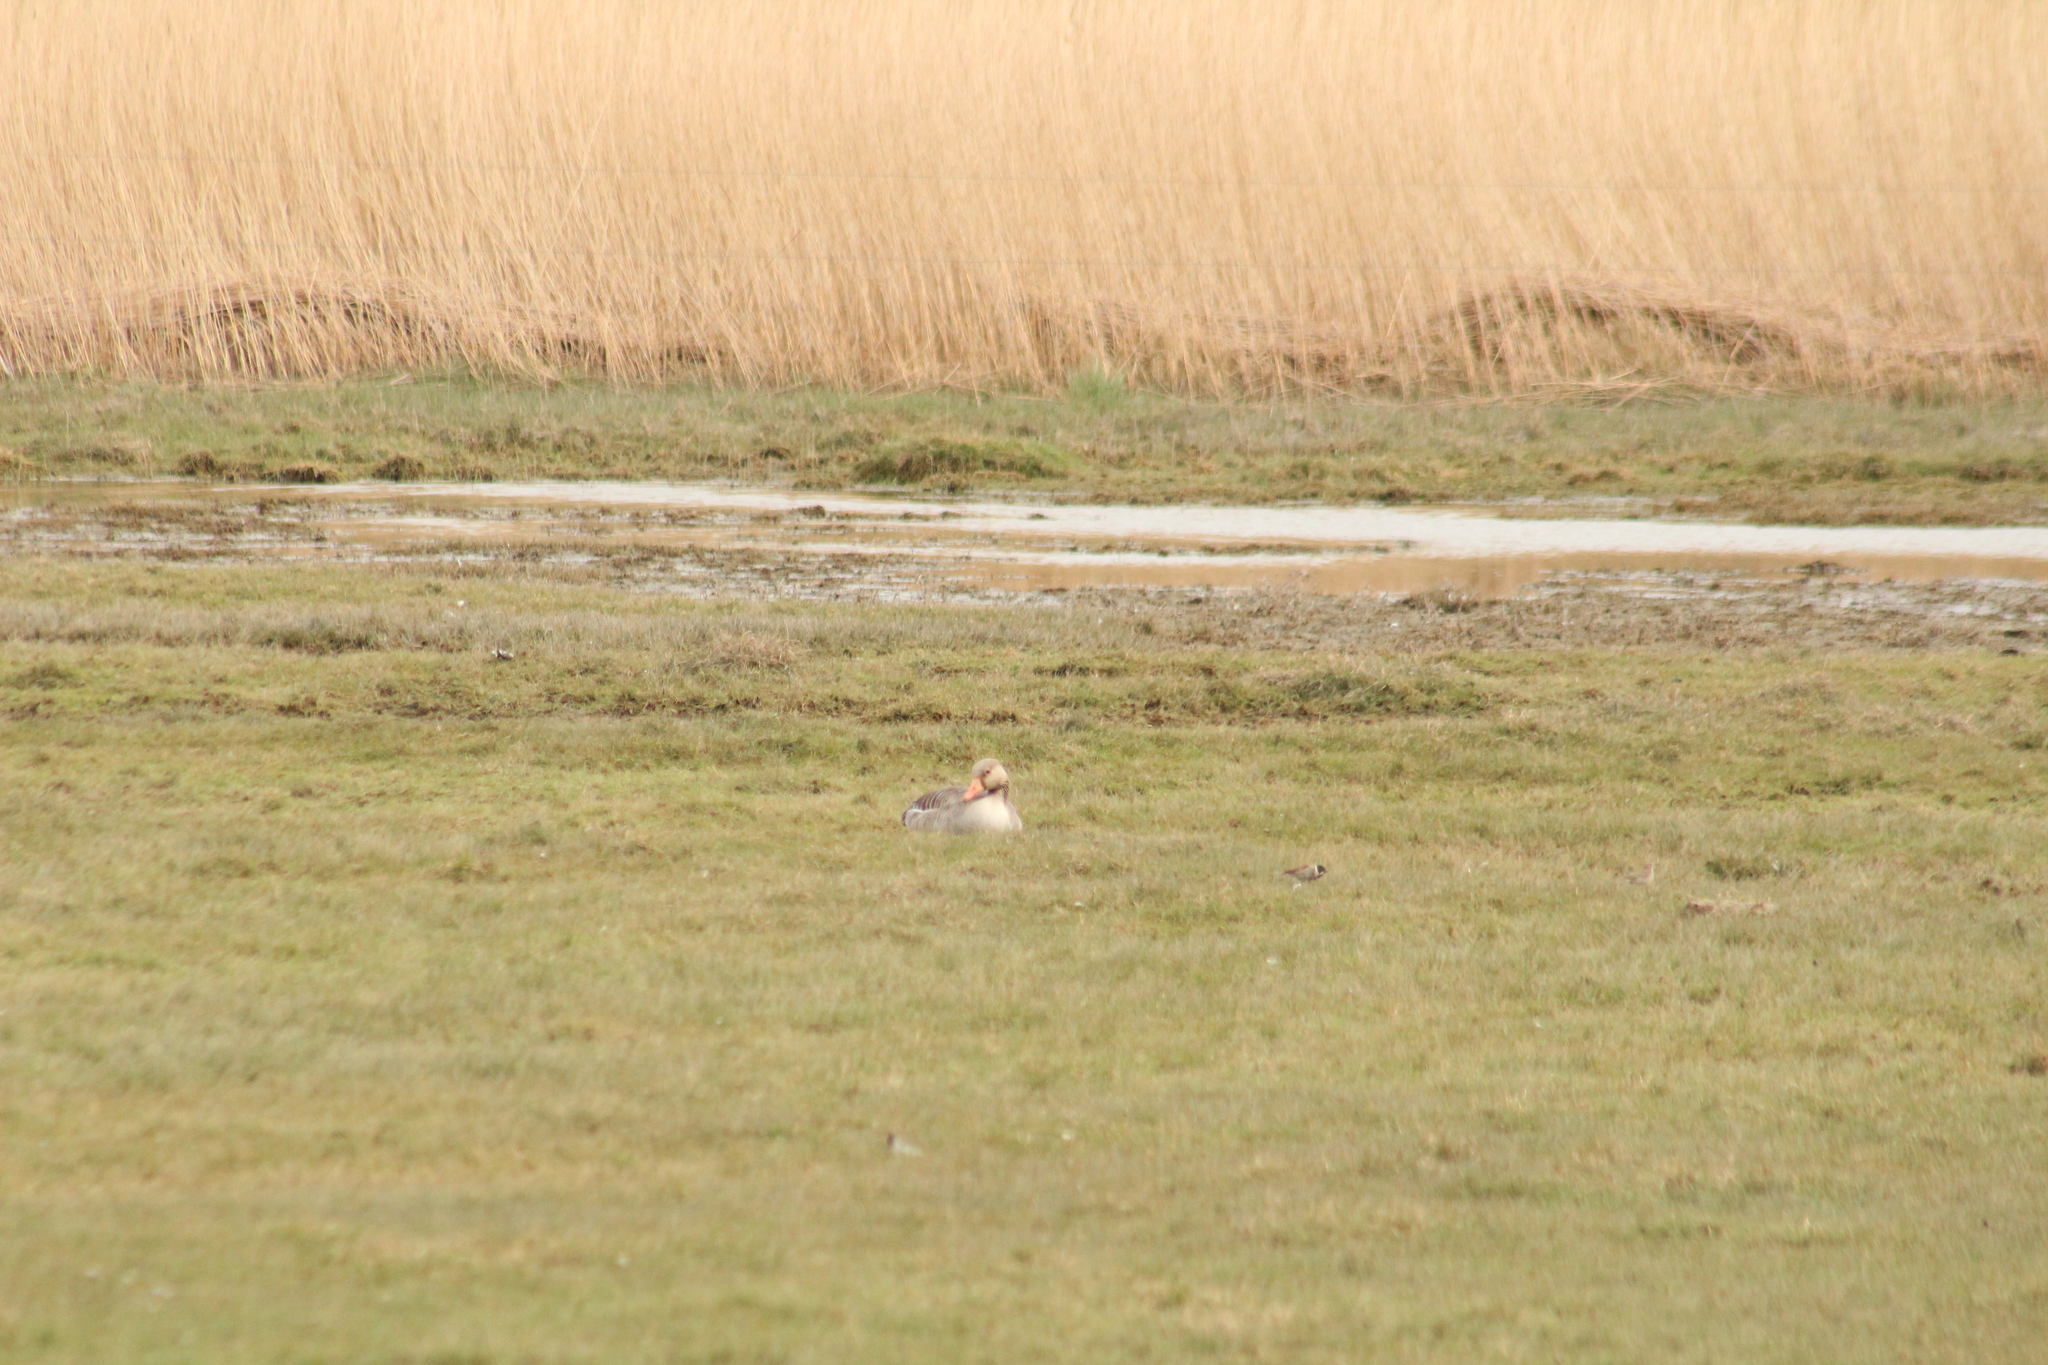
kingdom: Animalia
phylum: Chordata
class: Aves
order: Anseriformes
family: Anatidae
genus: Anser
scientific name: Anser anser
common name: Greylag goose
